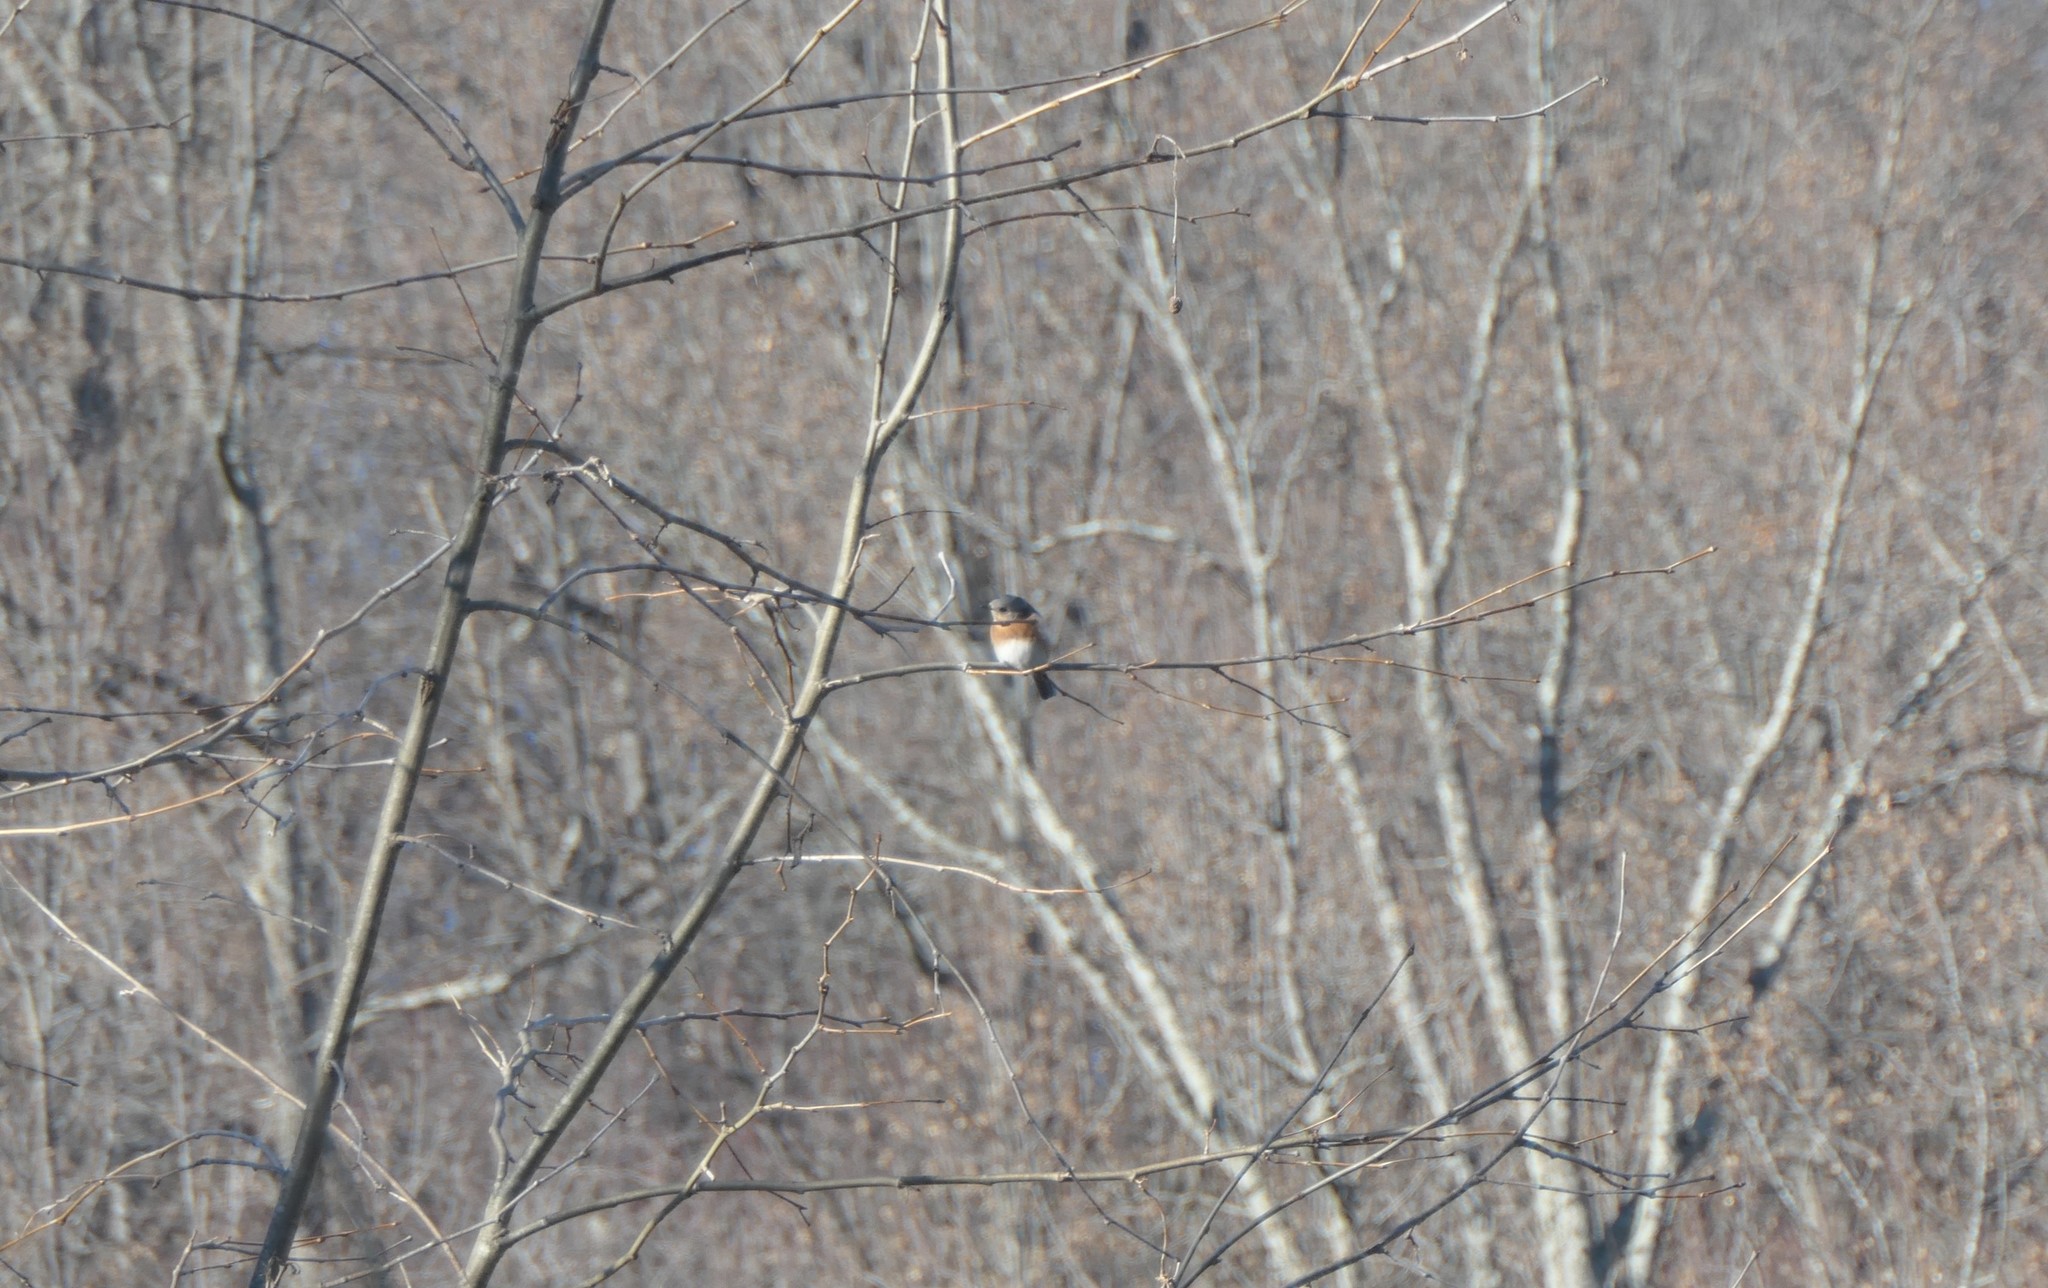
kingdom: Animalia
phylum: Chordata
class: Aves
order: Passeriformes
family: Turdidae
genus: Sialia
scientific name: Sialia sialis
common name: Eastern bluebird
